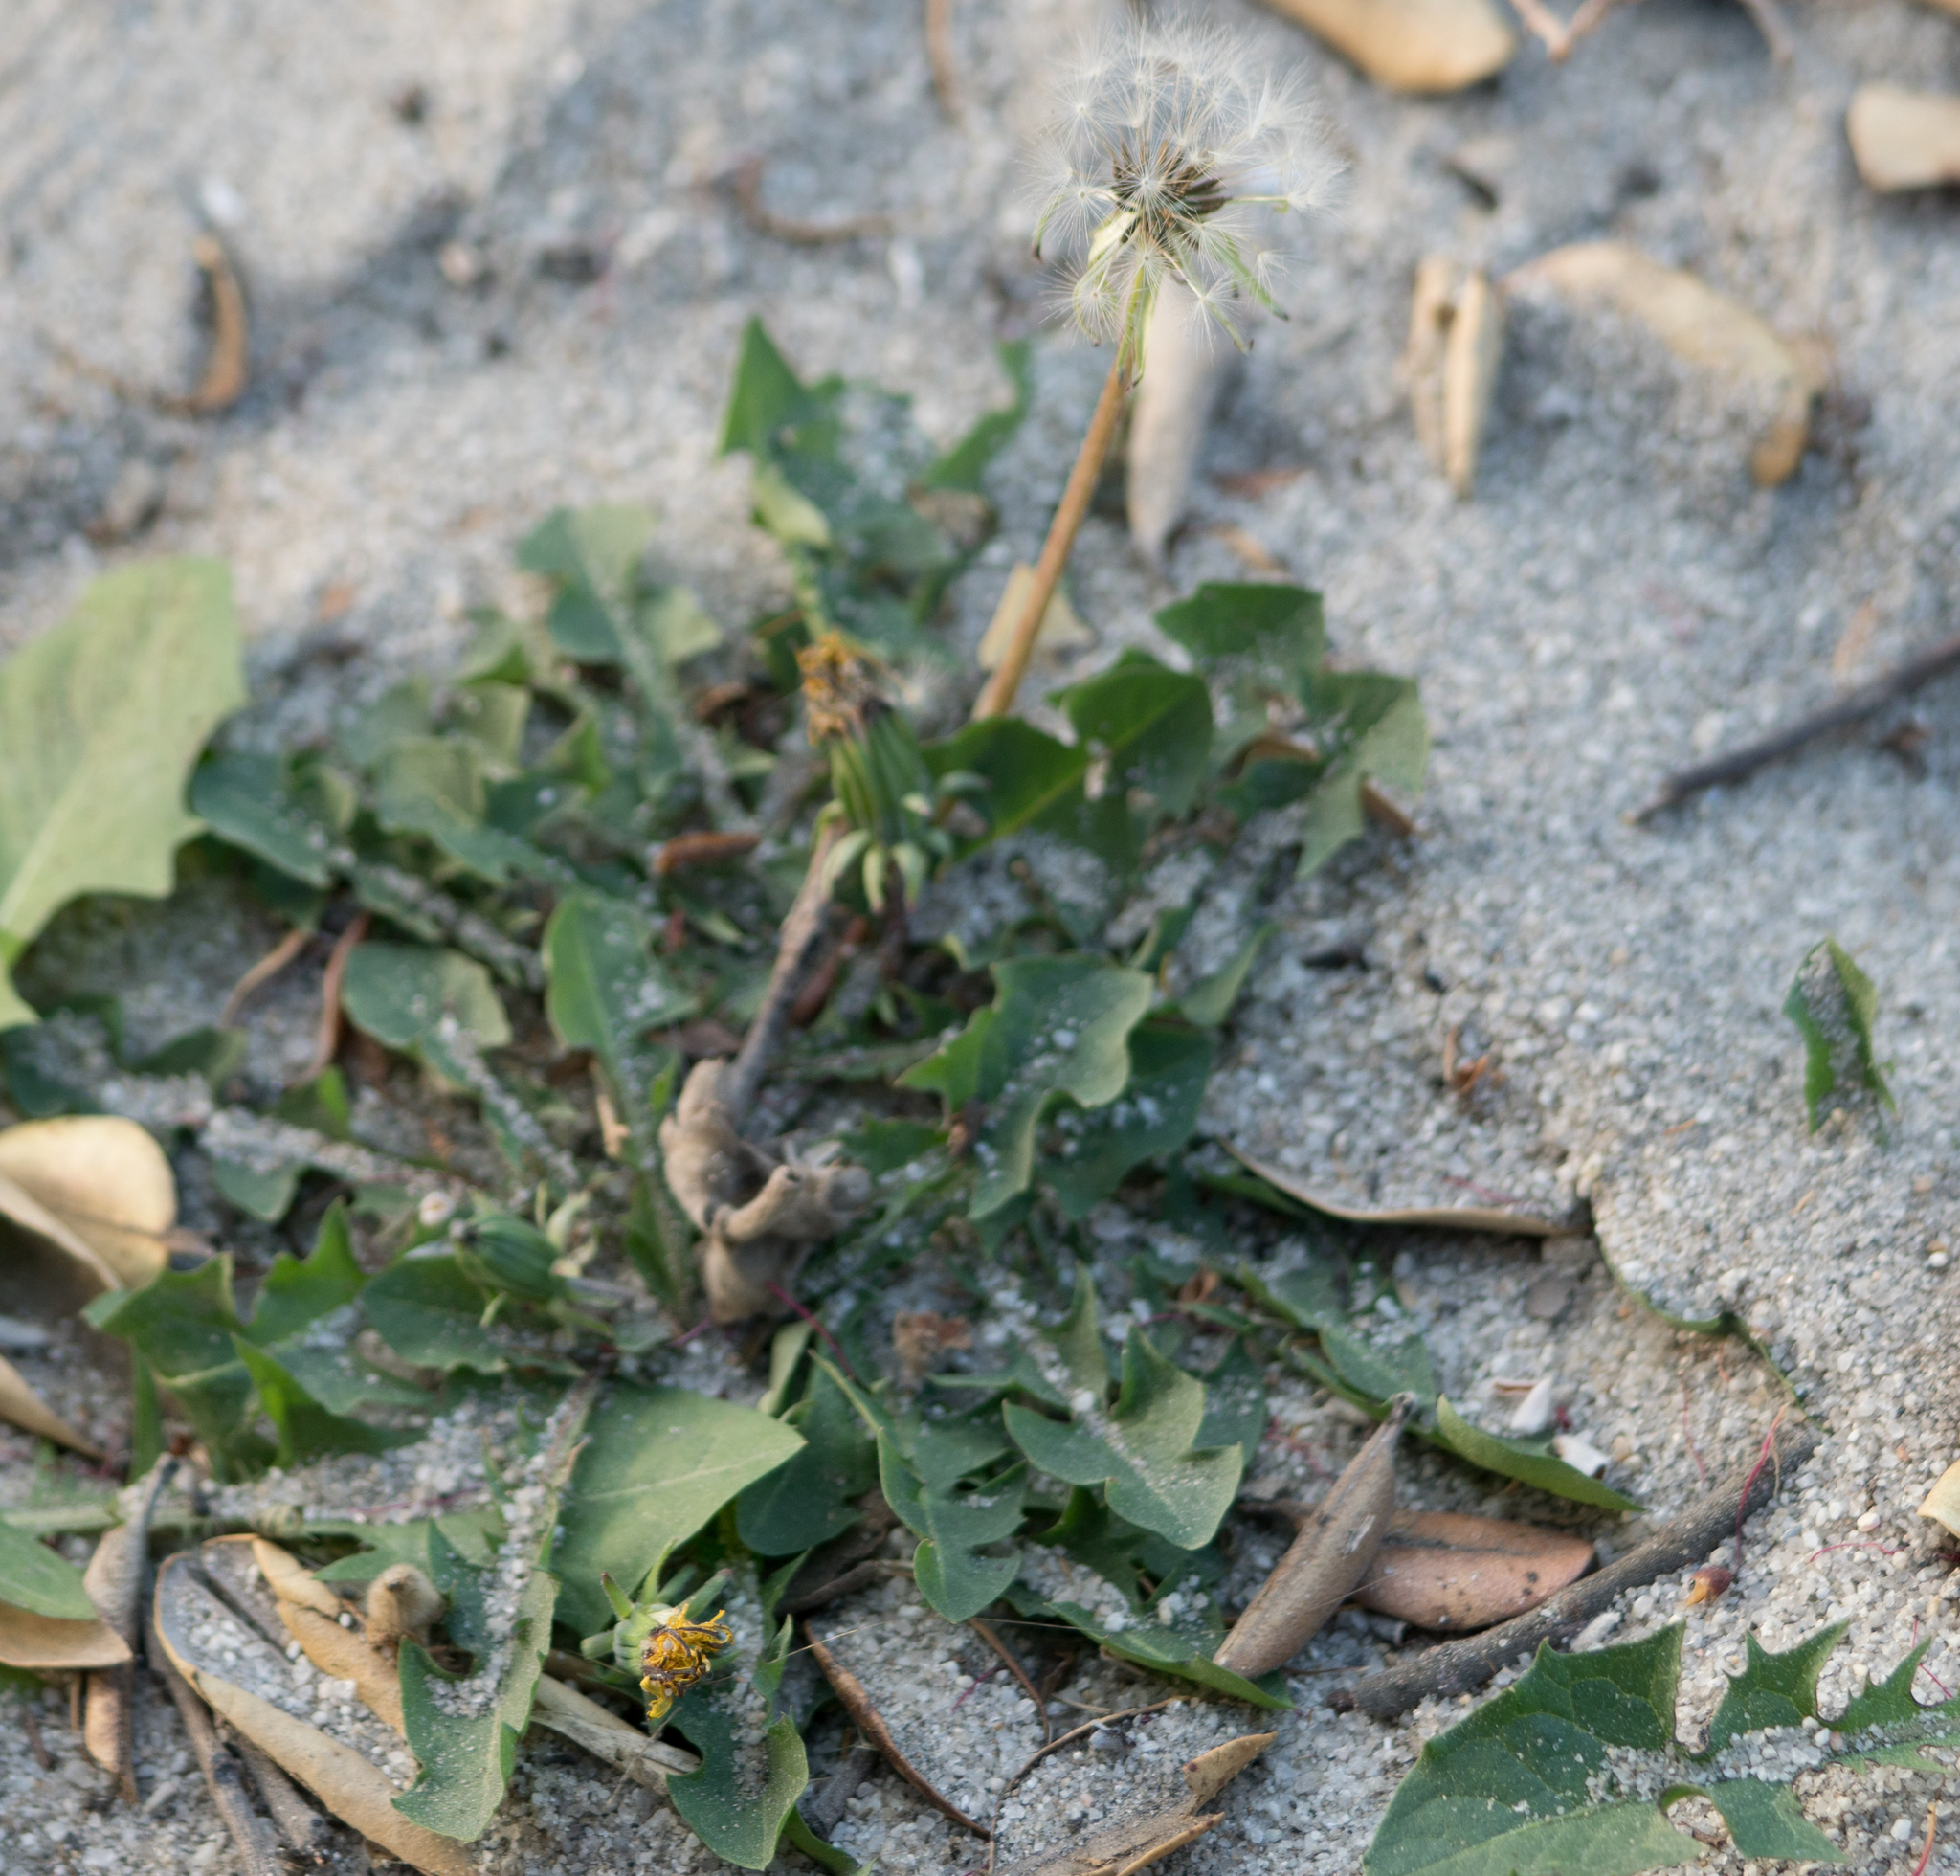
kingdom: Plantae
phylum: Tracheophyta
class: Magnoliopsida
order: Asterales
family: Asteraceae
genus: Taraxacum
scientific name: Taraxacum officinale
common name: Common dandelion
